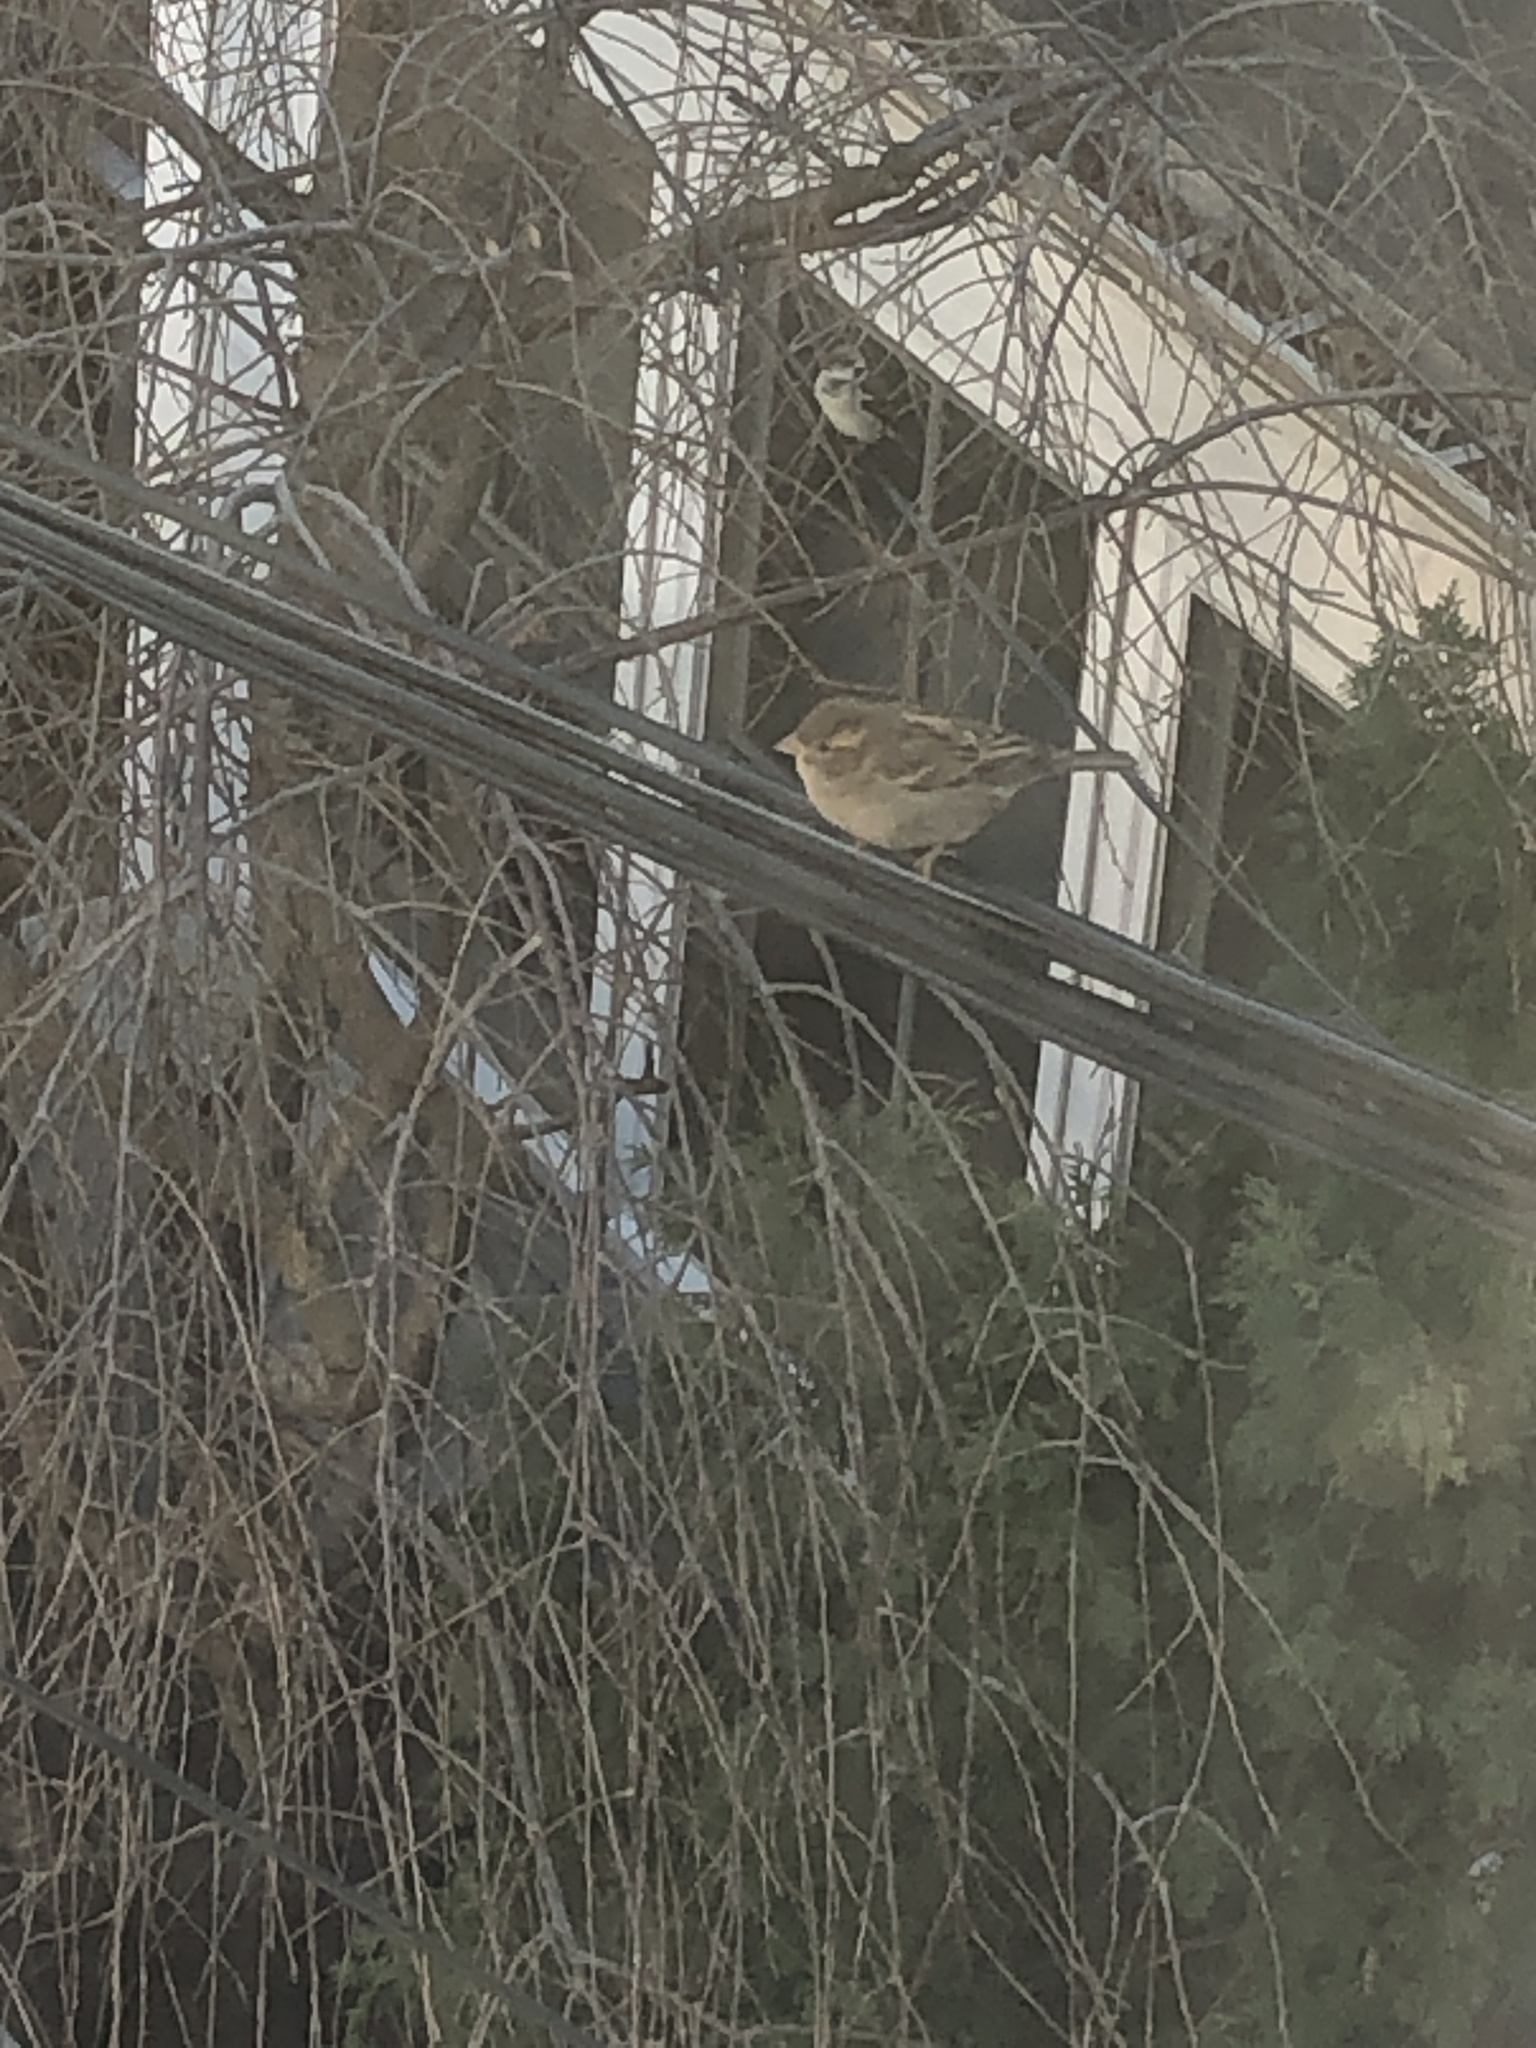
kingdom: Animalia
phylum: Chordata
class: Aves
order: Passeriformes
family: Passeridae
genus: Passer
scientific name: Passer domesticus
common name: House sparrow
